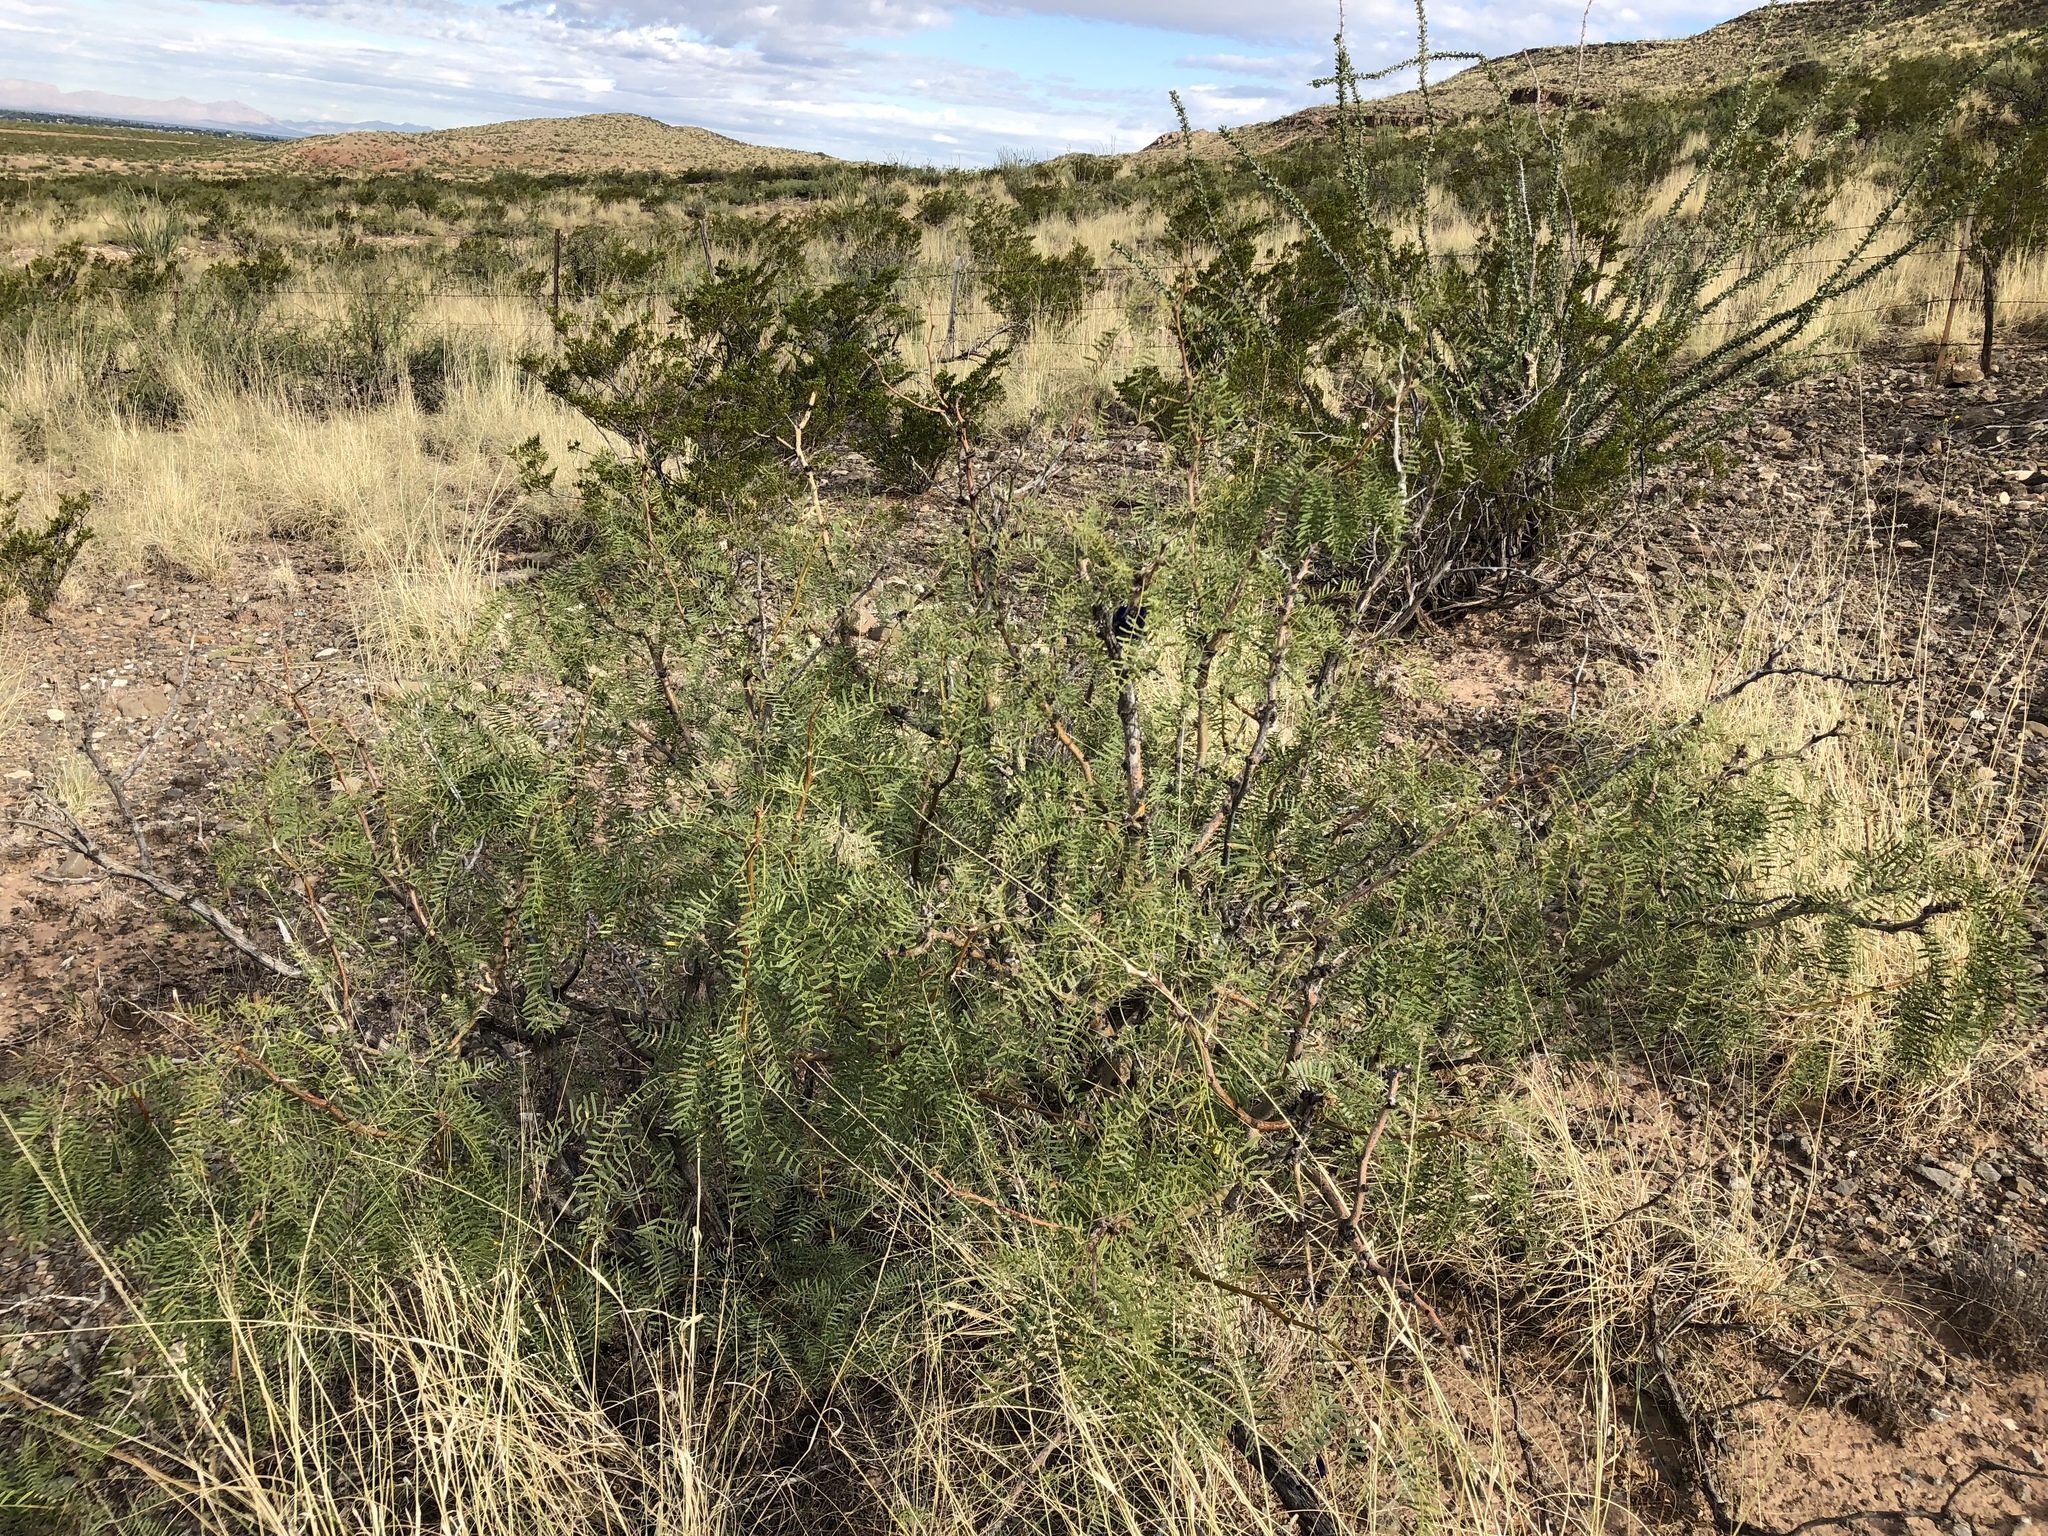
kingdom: Plantae
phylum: Tracheophyta
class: Magnoliopsida
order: Fabales
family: Fabaceae
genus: Prosopis
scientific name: Prosopis glandulosa
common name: Honey mesquite
